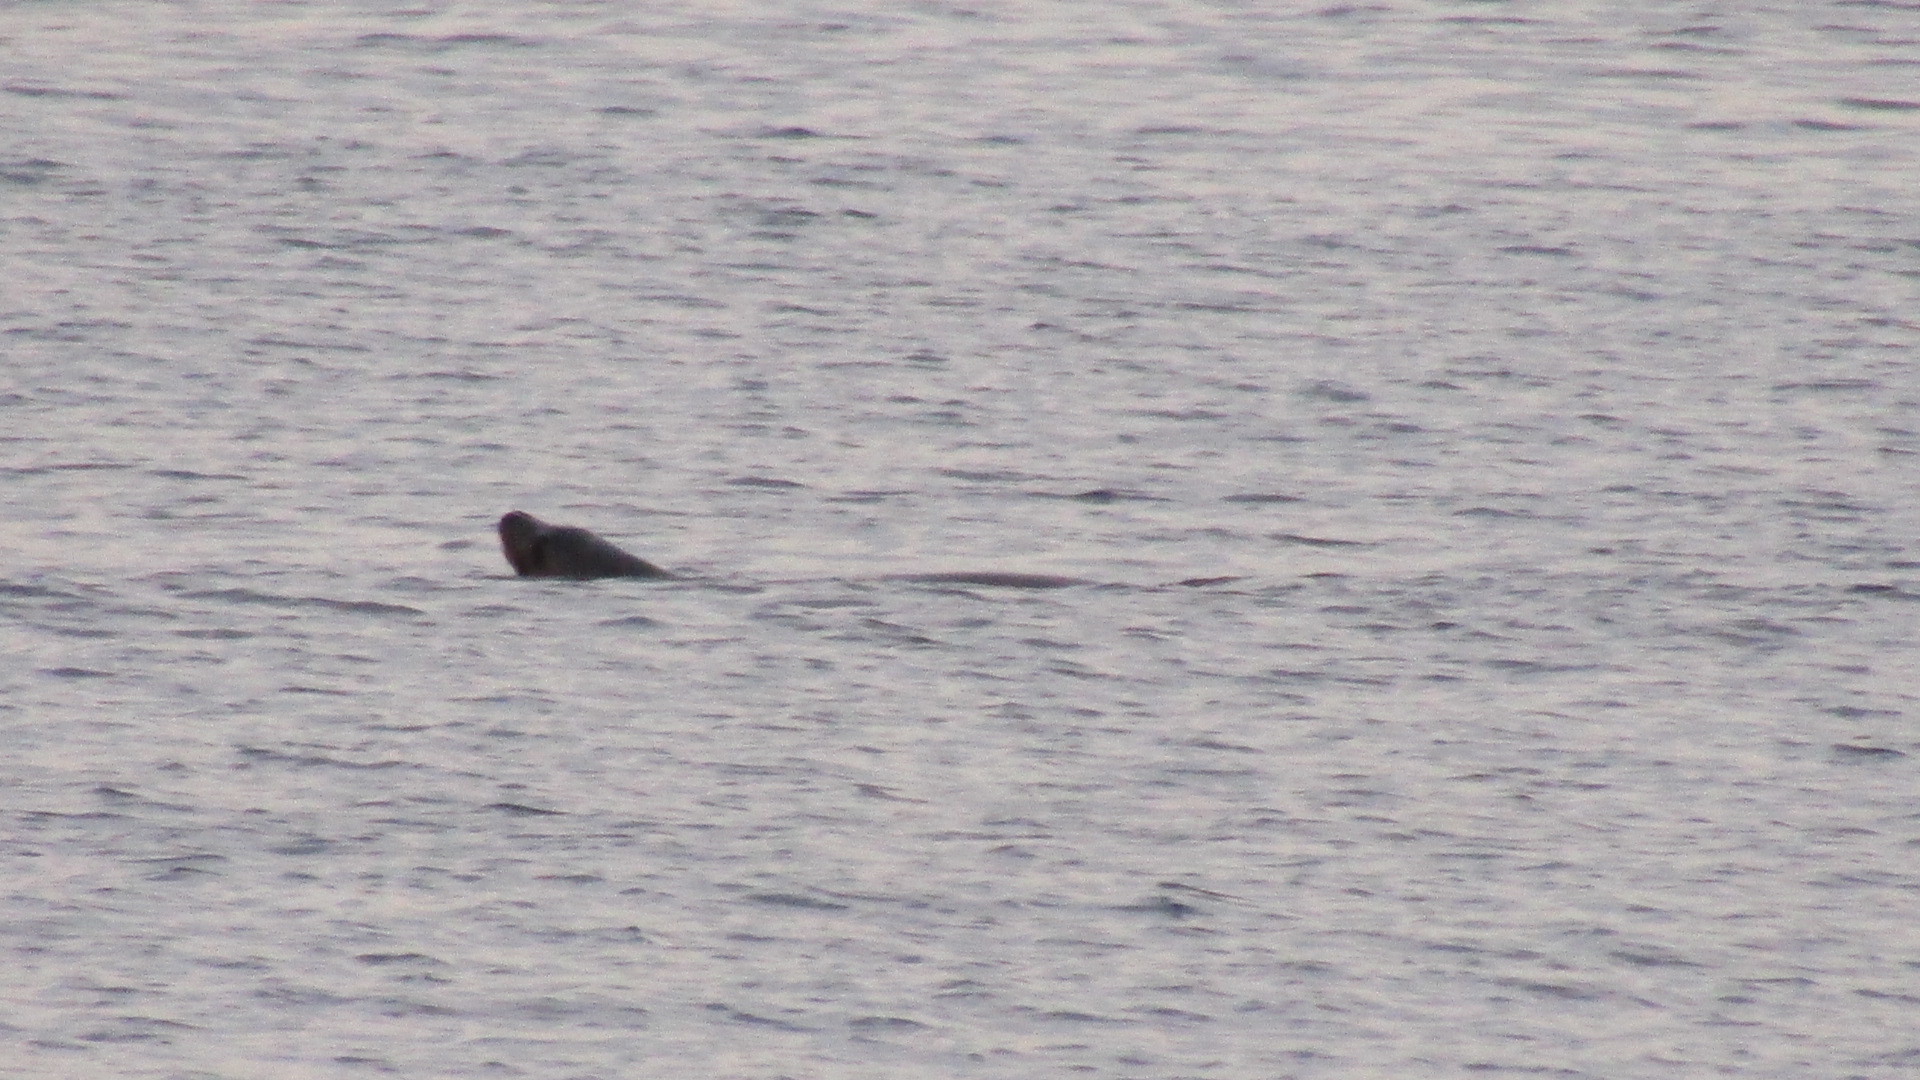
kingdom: Animalia
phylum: Chordata
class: Mammalia
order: Carnivora
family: Otariidae
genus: Zalophus
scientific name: Zalophus californianus
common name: California sea lion
